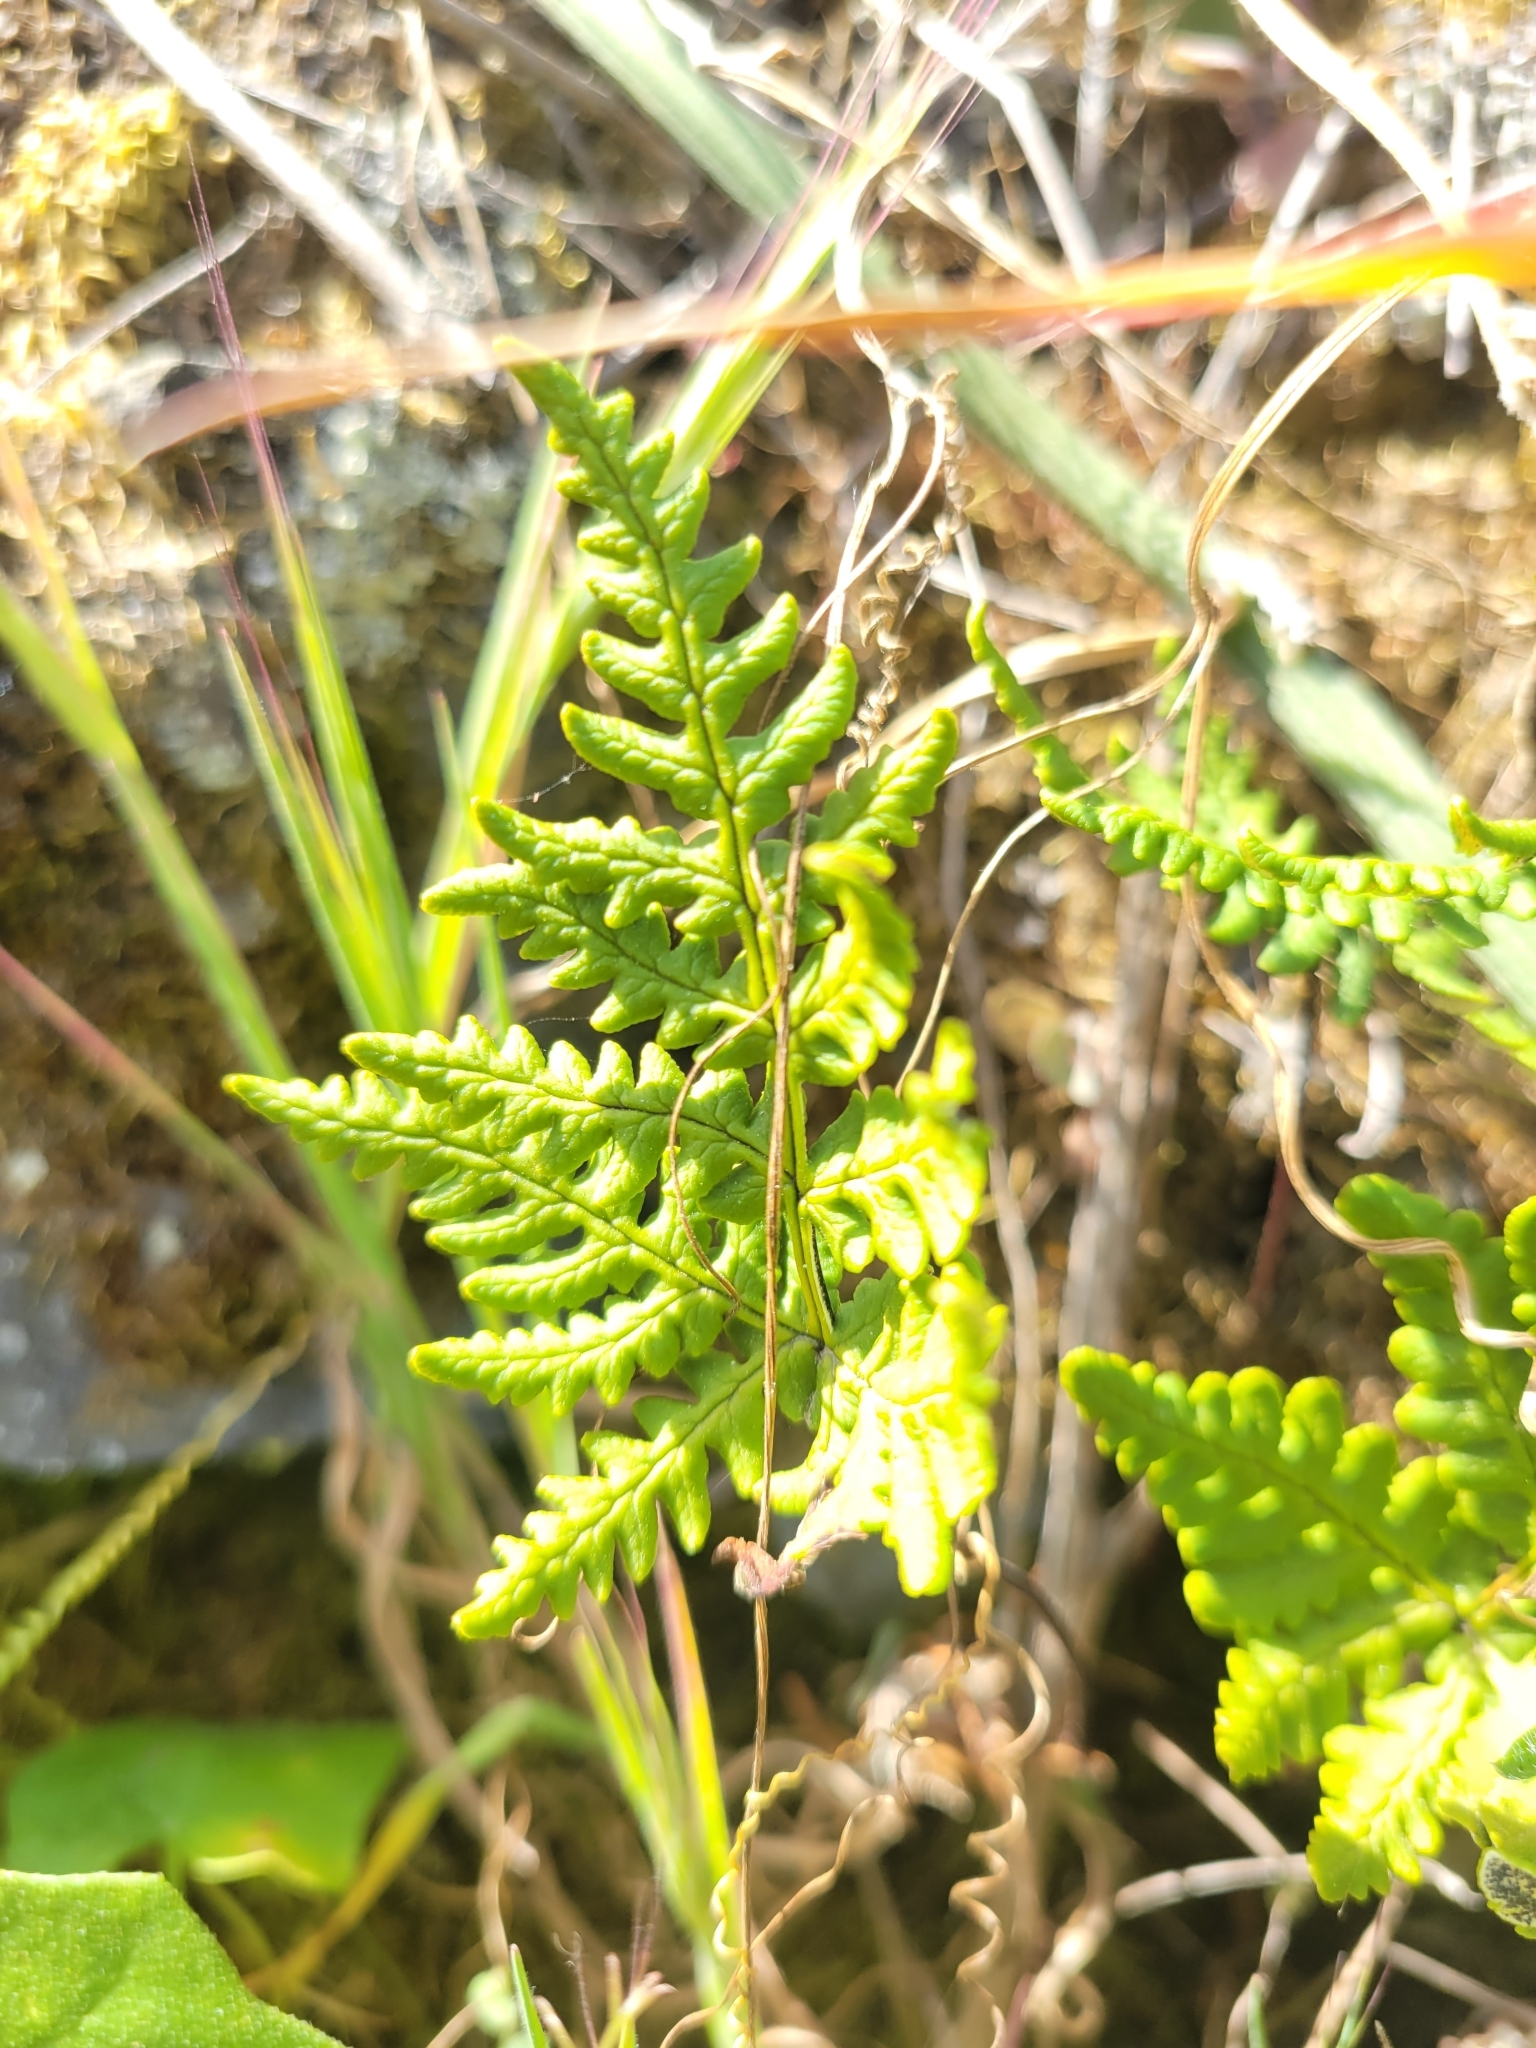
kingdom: Plantae
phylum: Tracheophyta
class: Polypodiopsida
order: Polypodiales
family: Pteridaceae
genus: Pentagramma
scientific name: Pentagramma triangularis
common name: Gold fern
